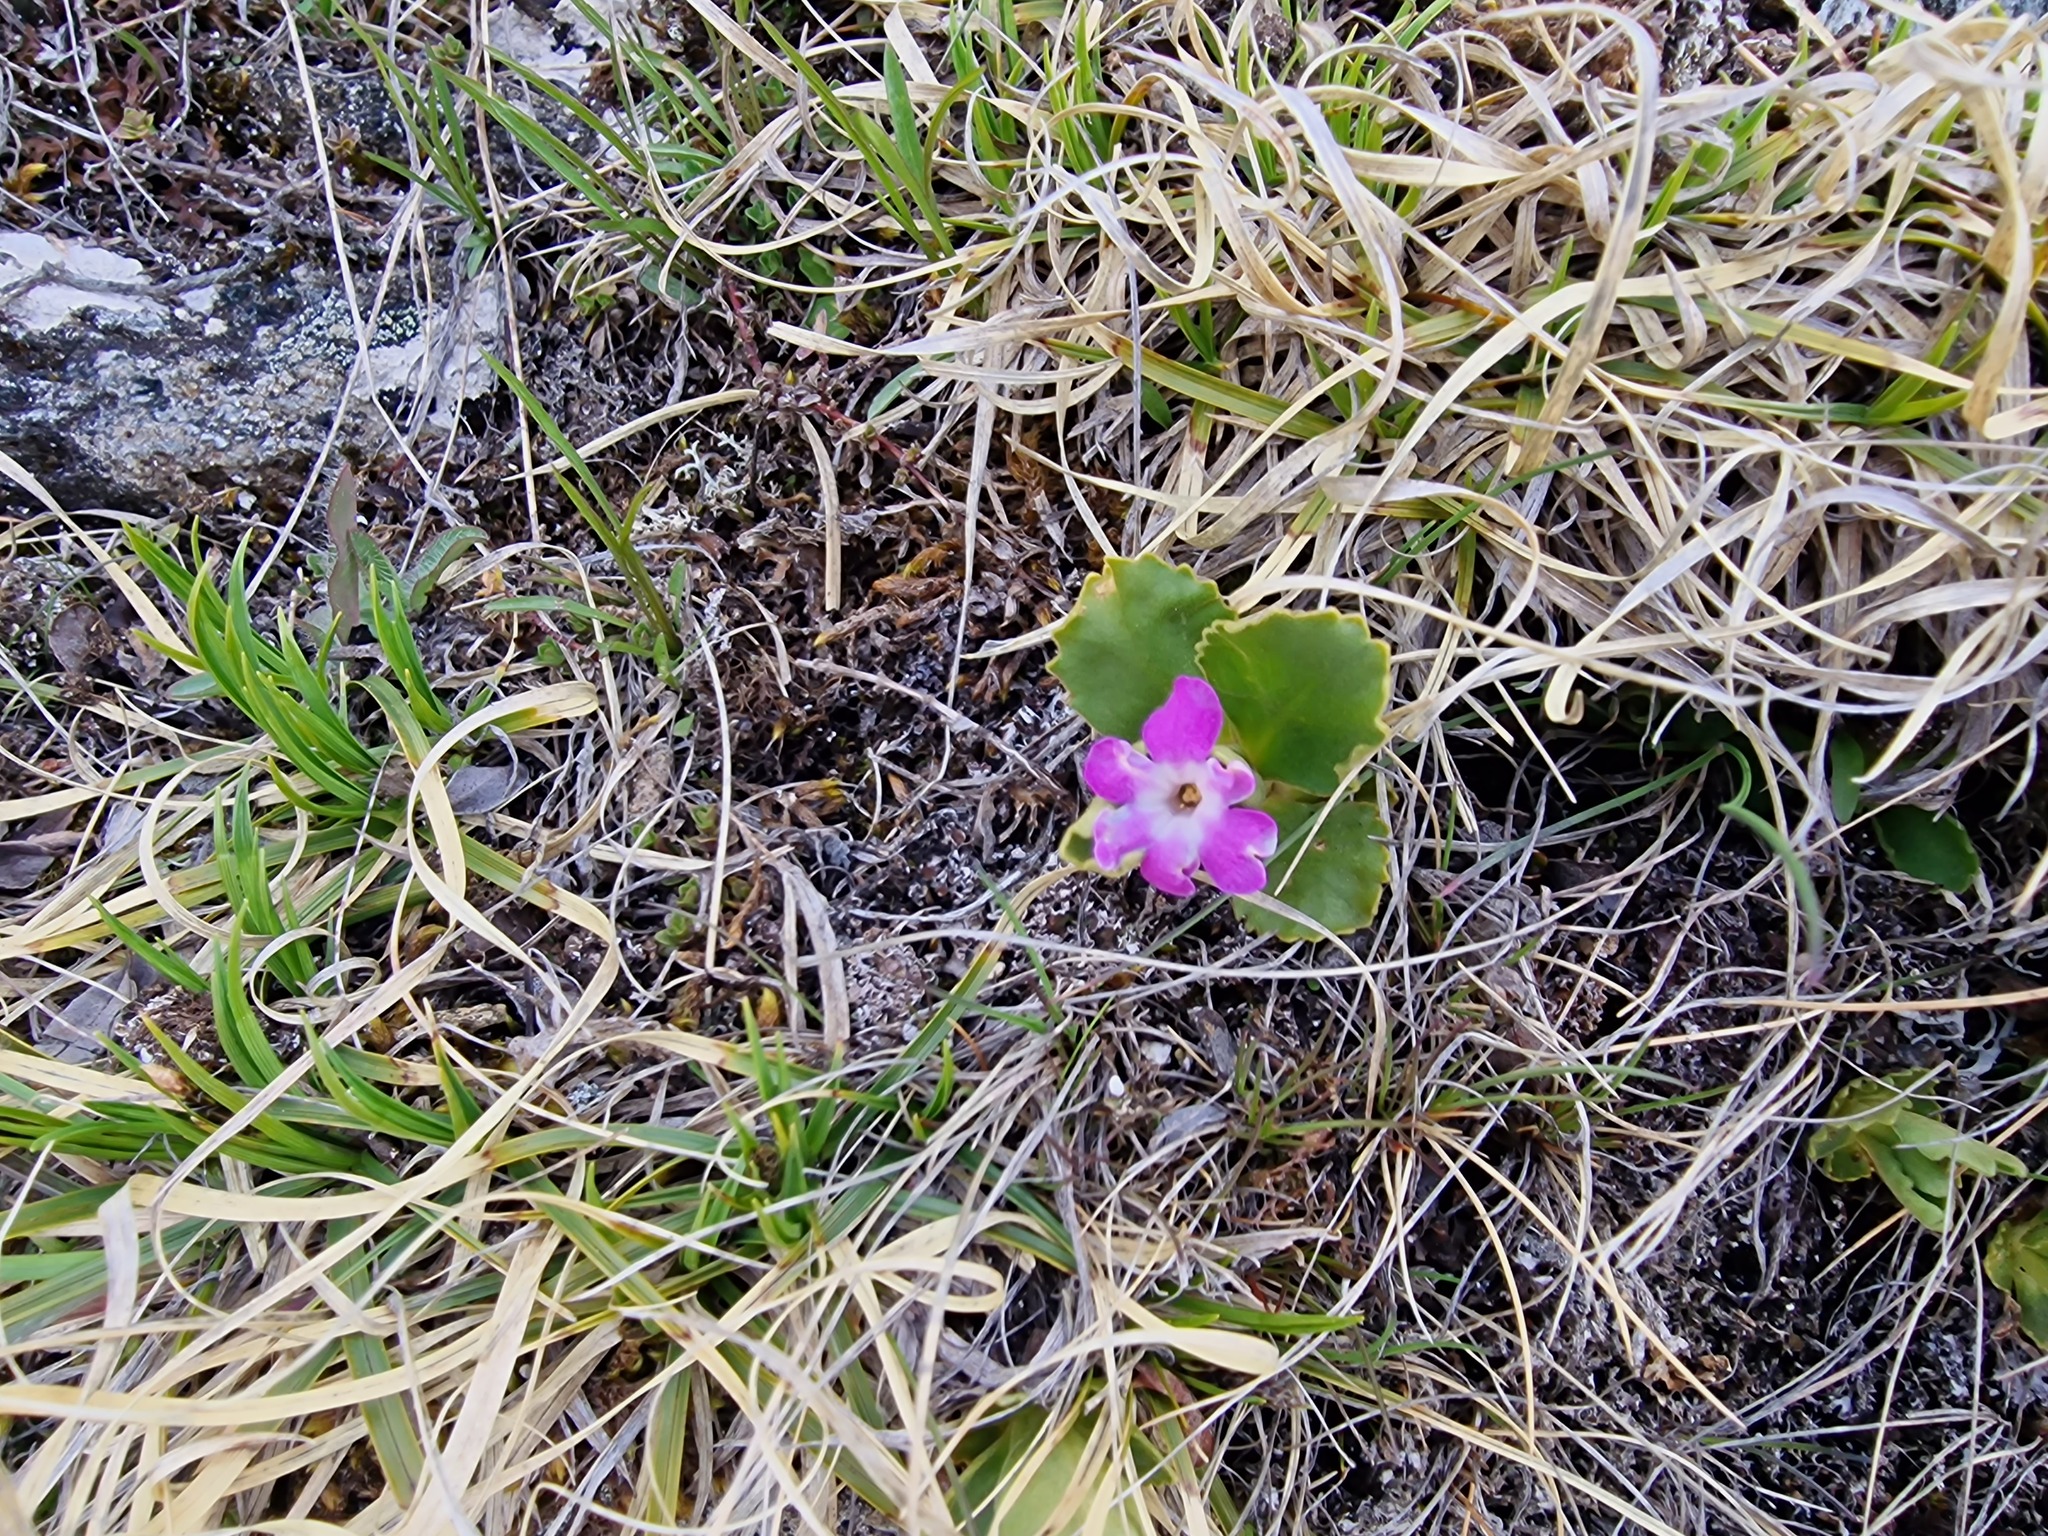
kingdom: Plantae
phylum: Tracheophyta
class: Magnoliopsida
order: Ericales
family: Primulaceae
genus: Primula
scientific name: Primula hirsuta
